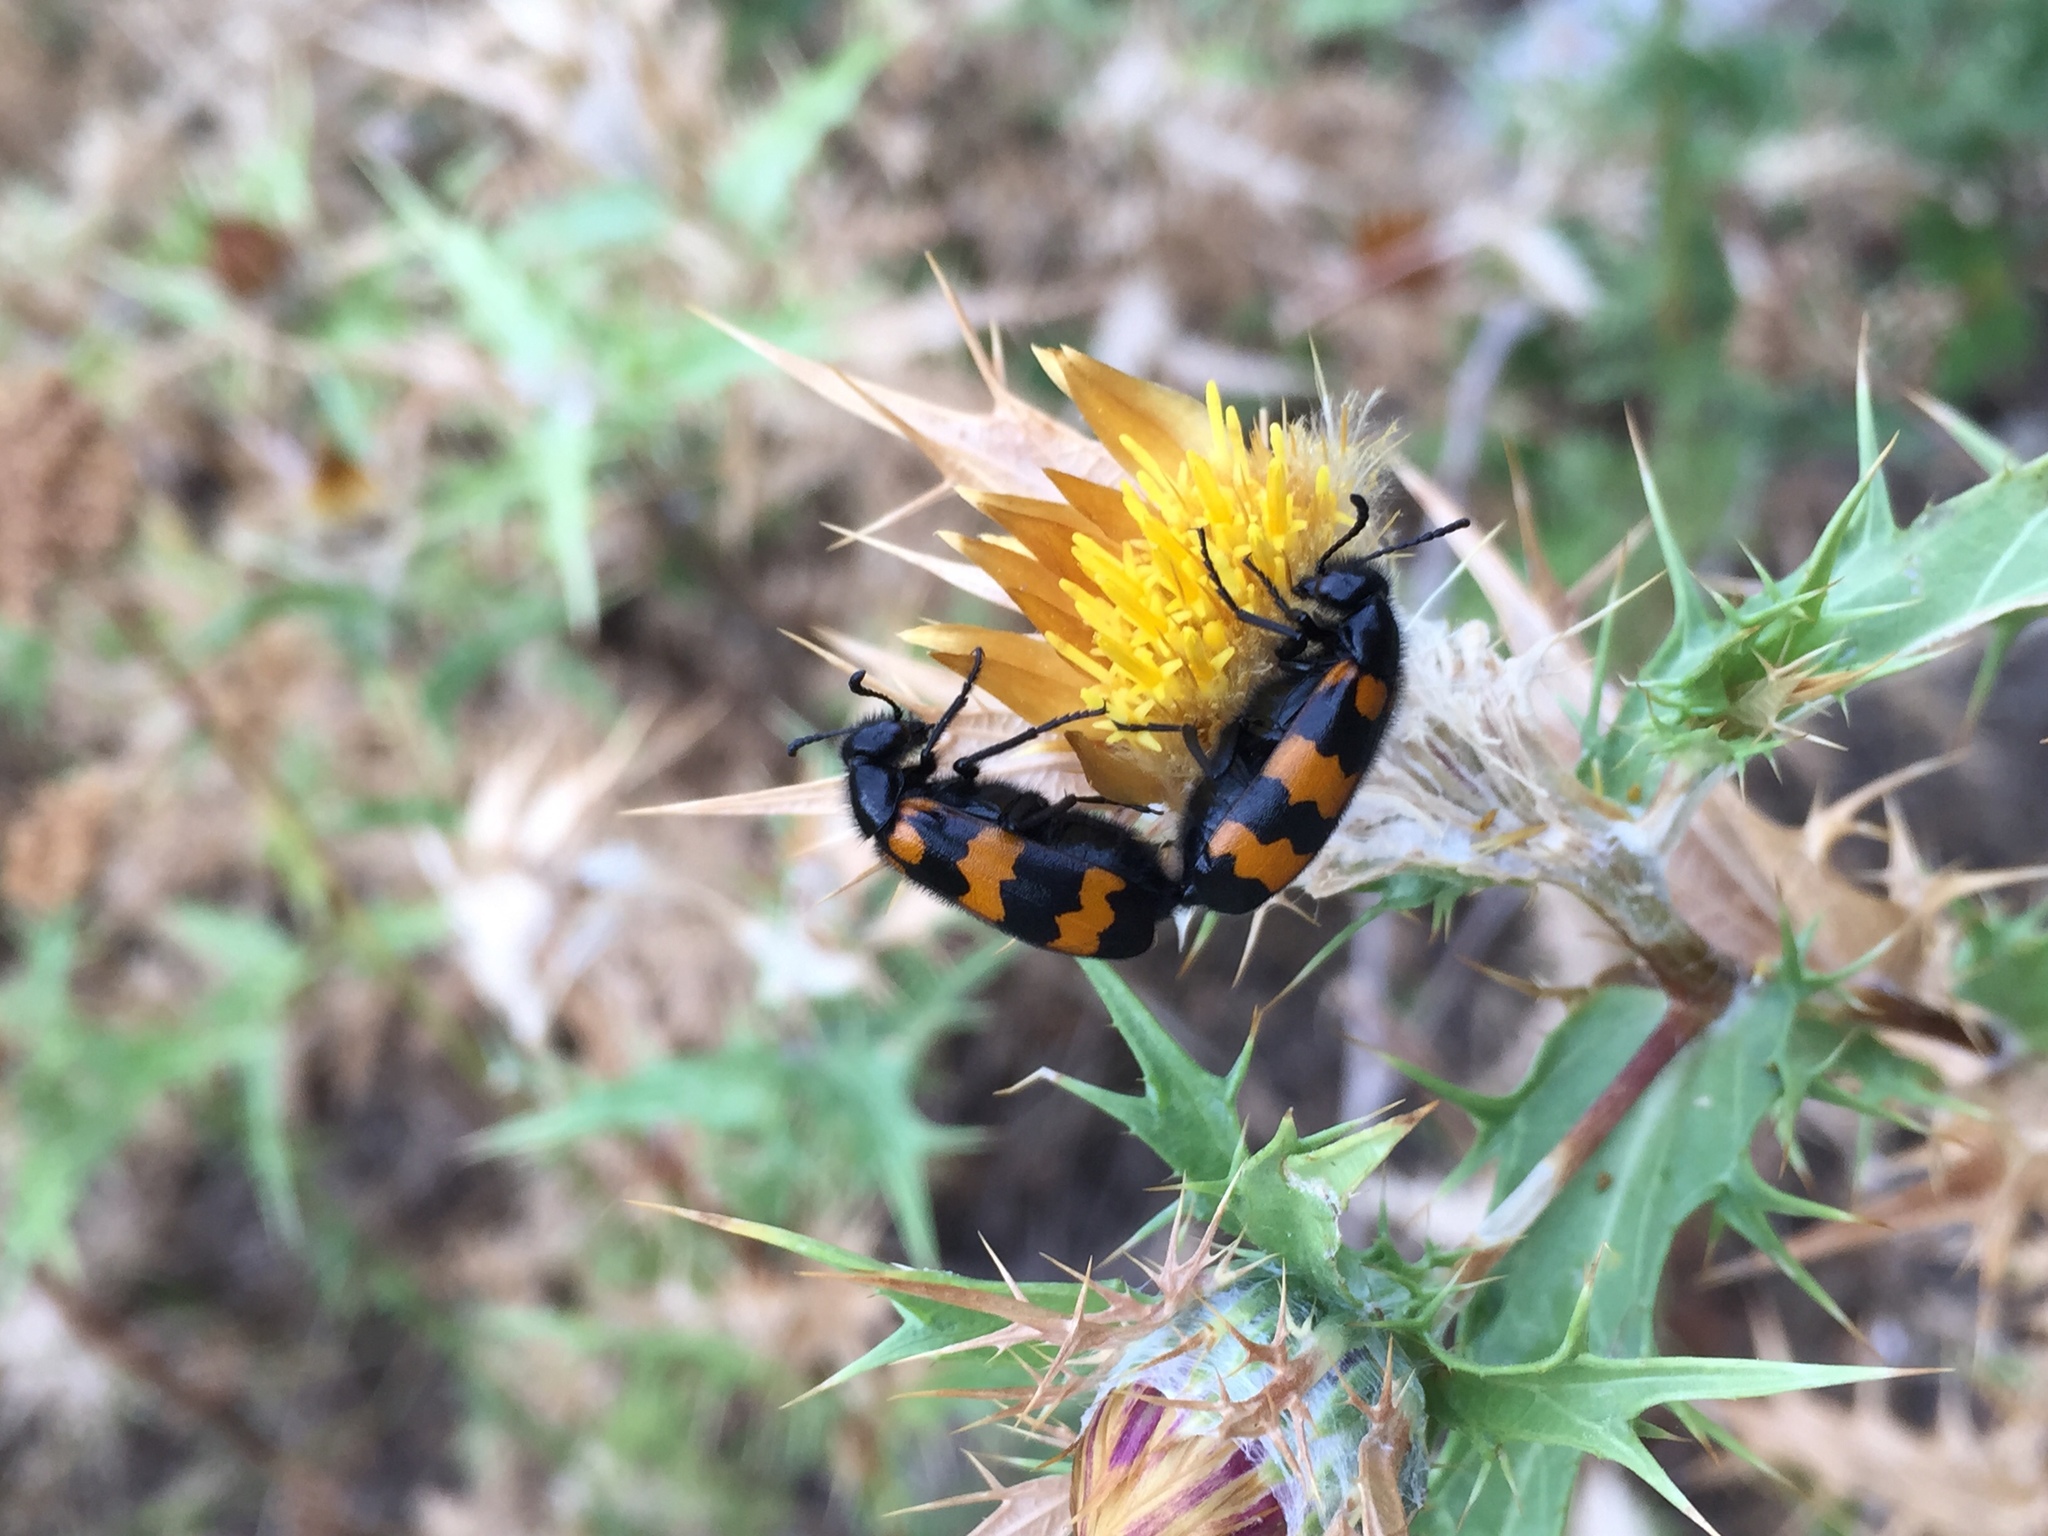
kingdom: Animalia
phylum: Arthropoda
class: Insecta
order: Coleoptera
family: Meloidae
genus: Mylabris
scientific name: Mylabris variabilis
